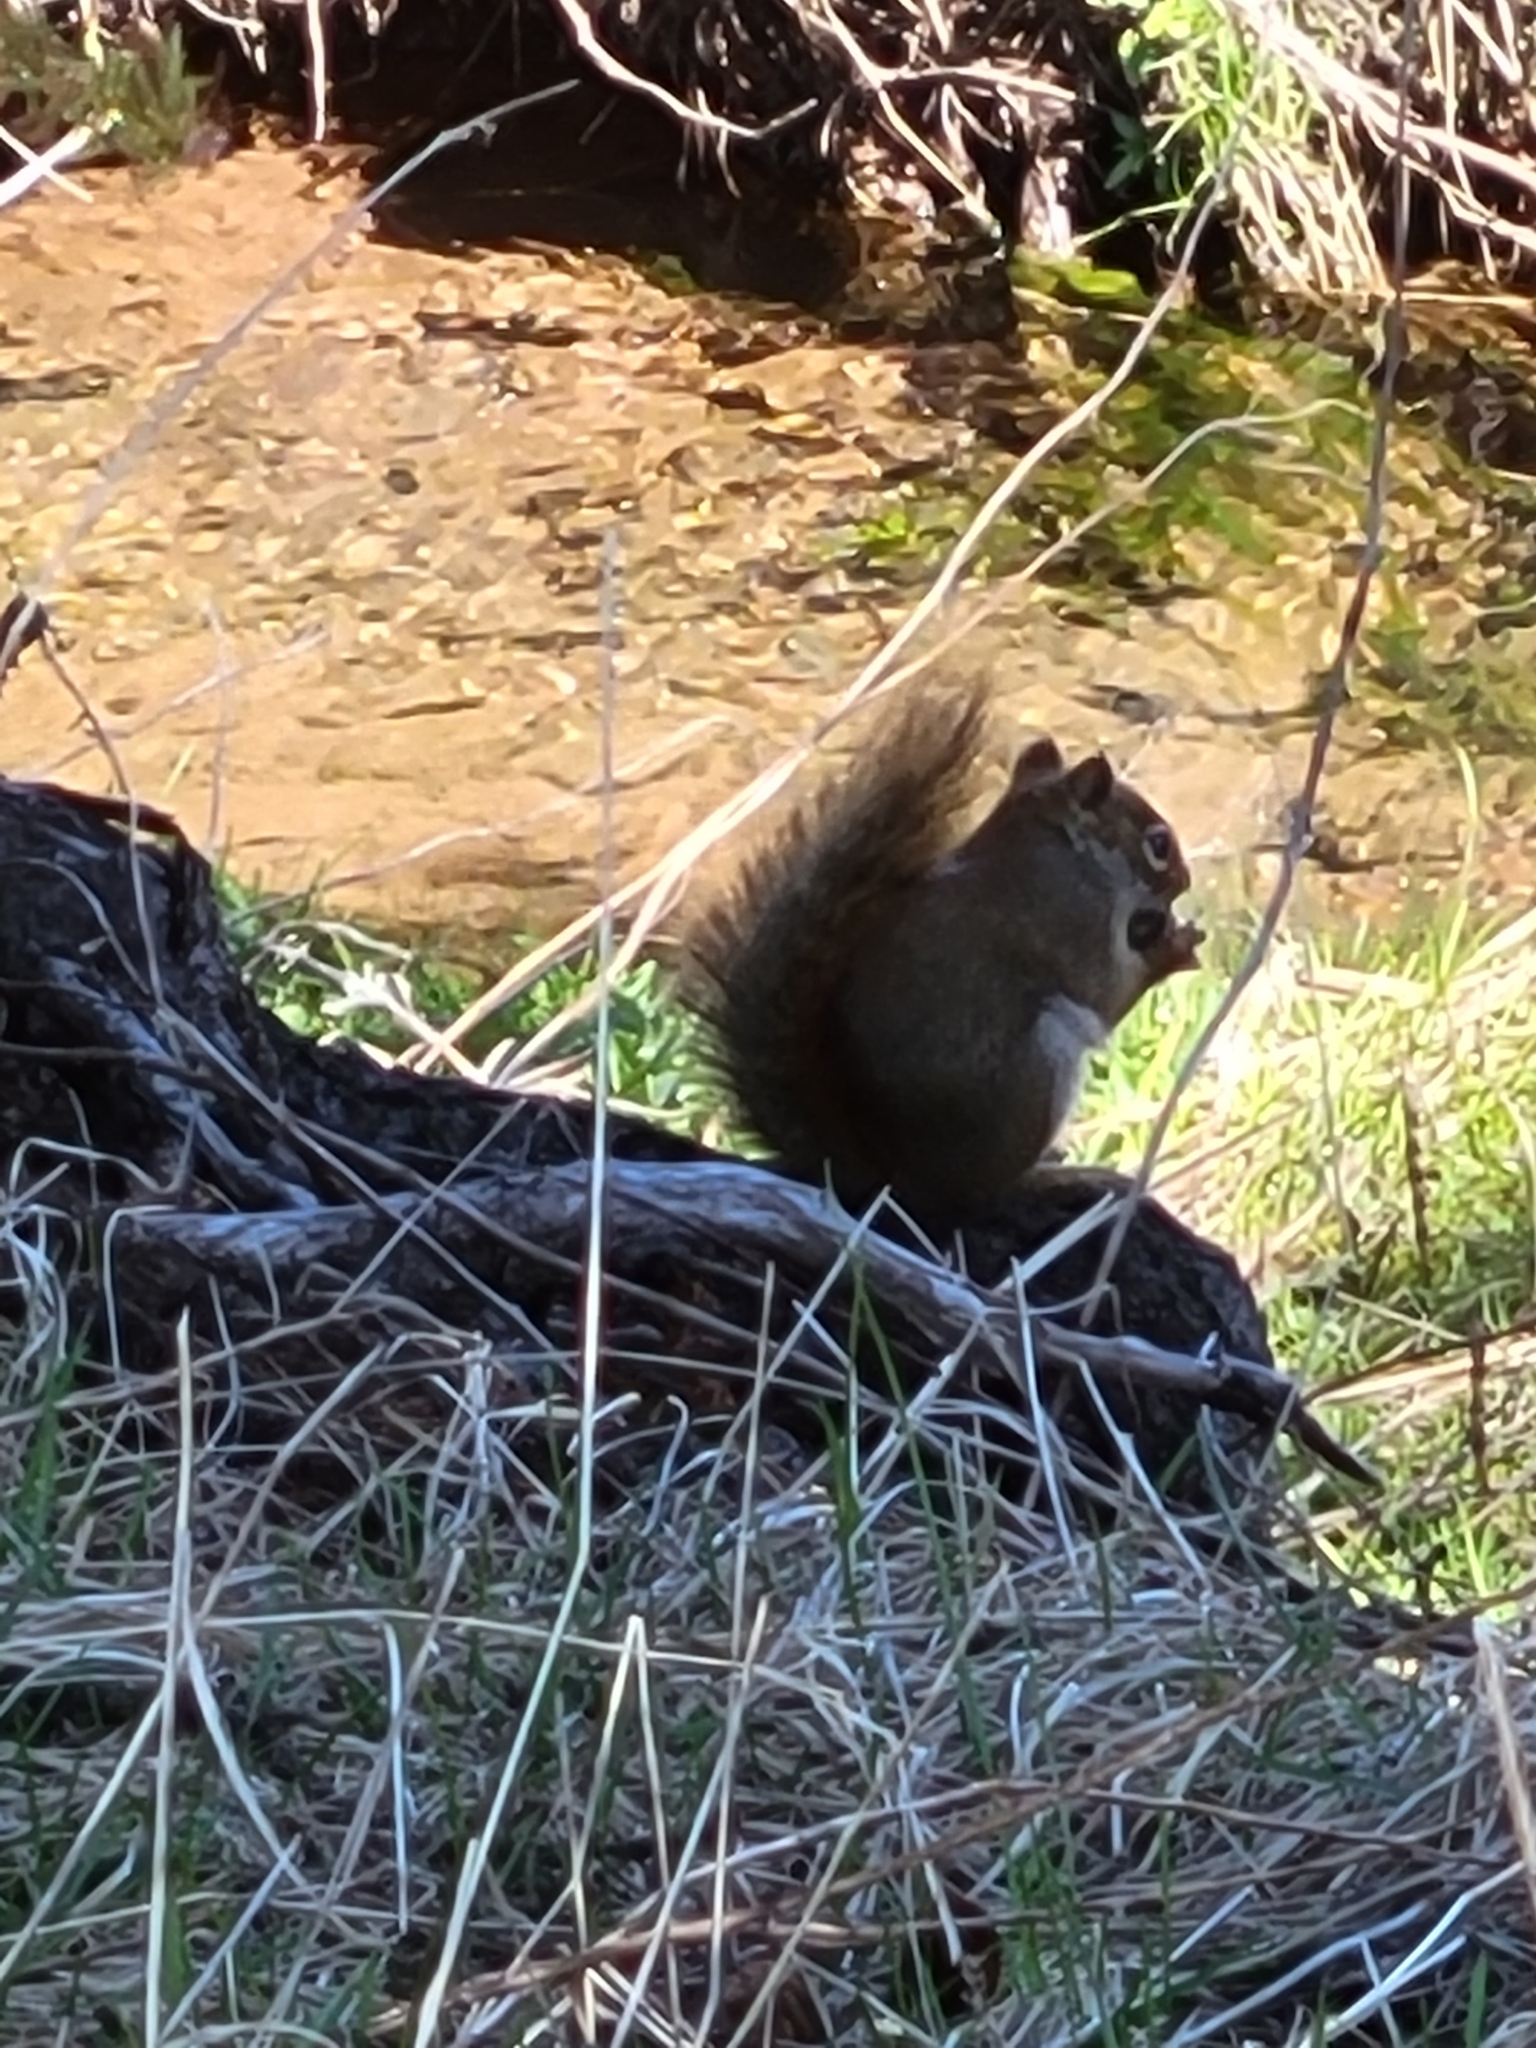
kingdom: Animalia
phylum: Chordata
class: Mammalia
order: Rodentia
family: Sciuridae
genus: Tamiasciurus
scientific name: Tamiasciurus hudsonicus
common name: Red squirrel
